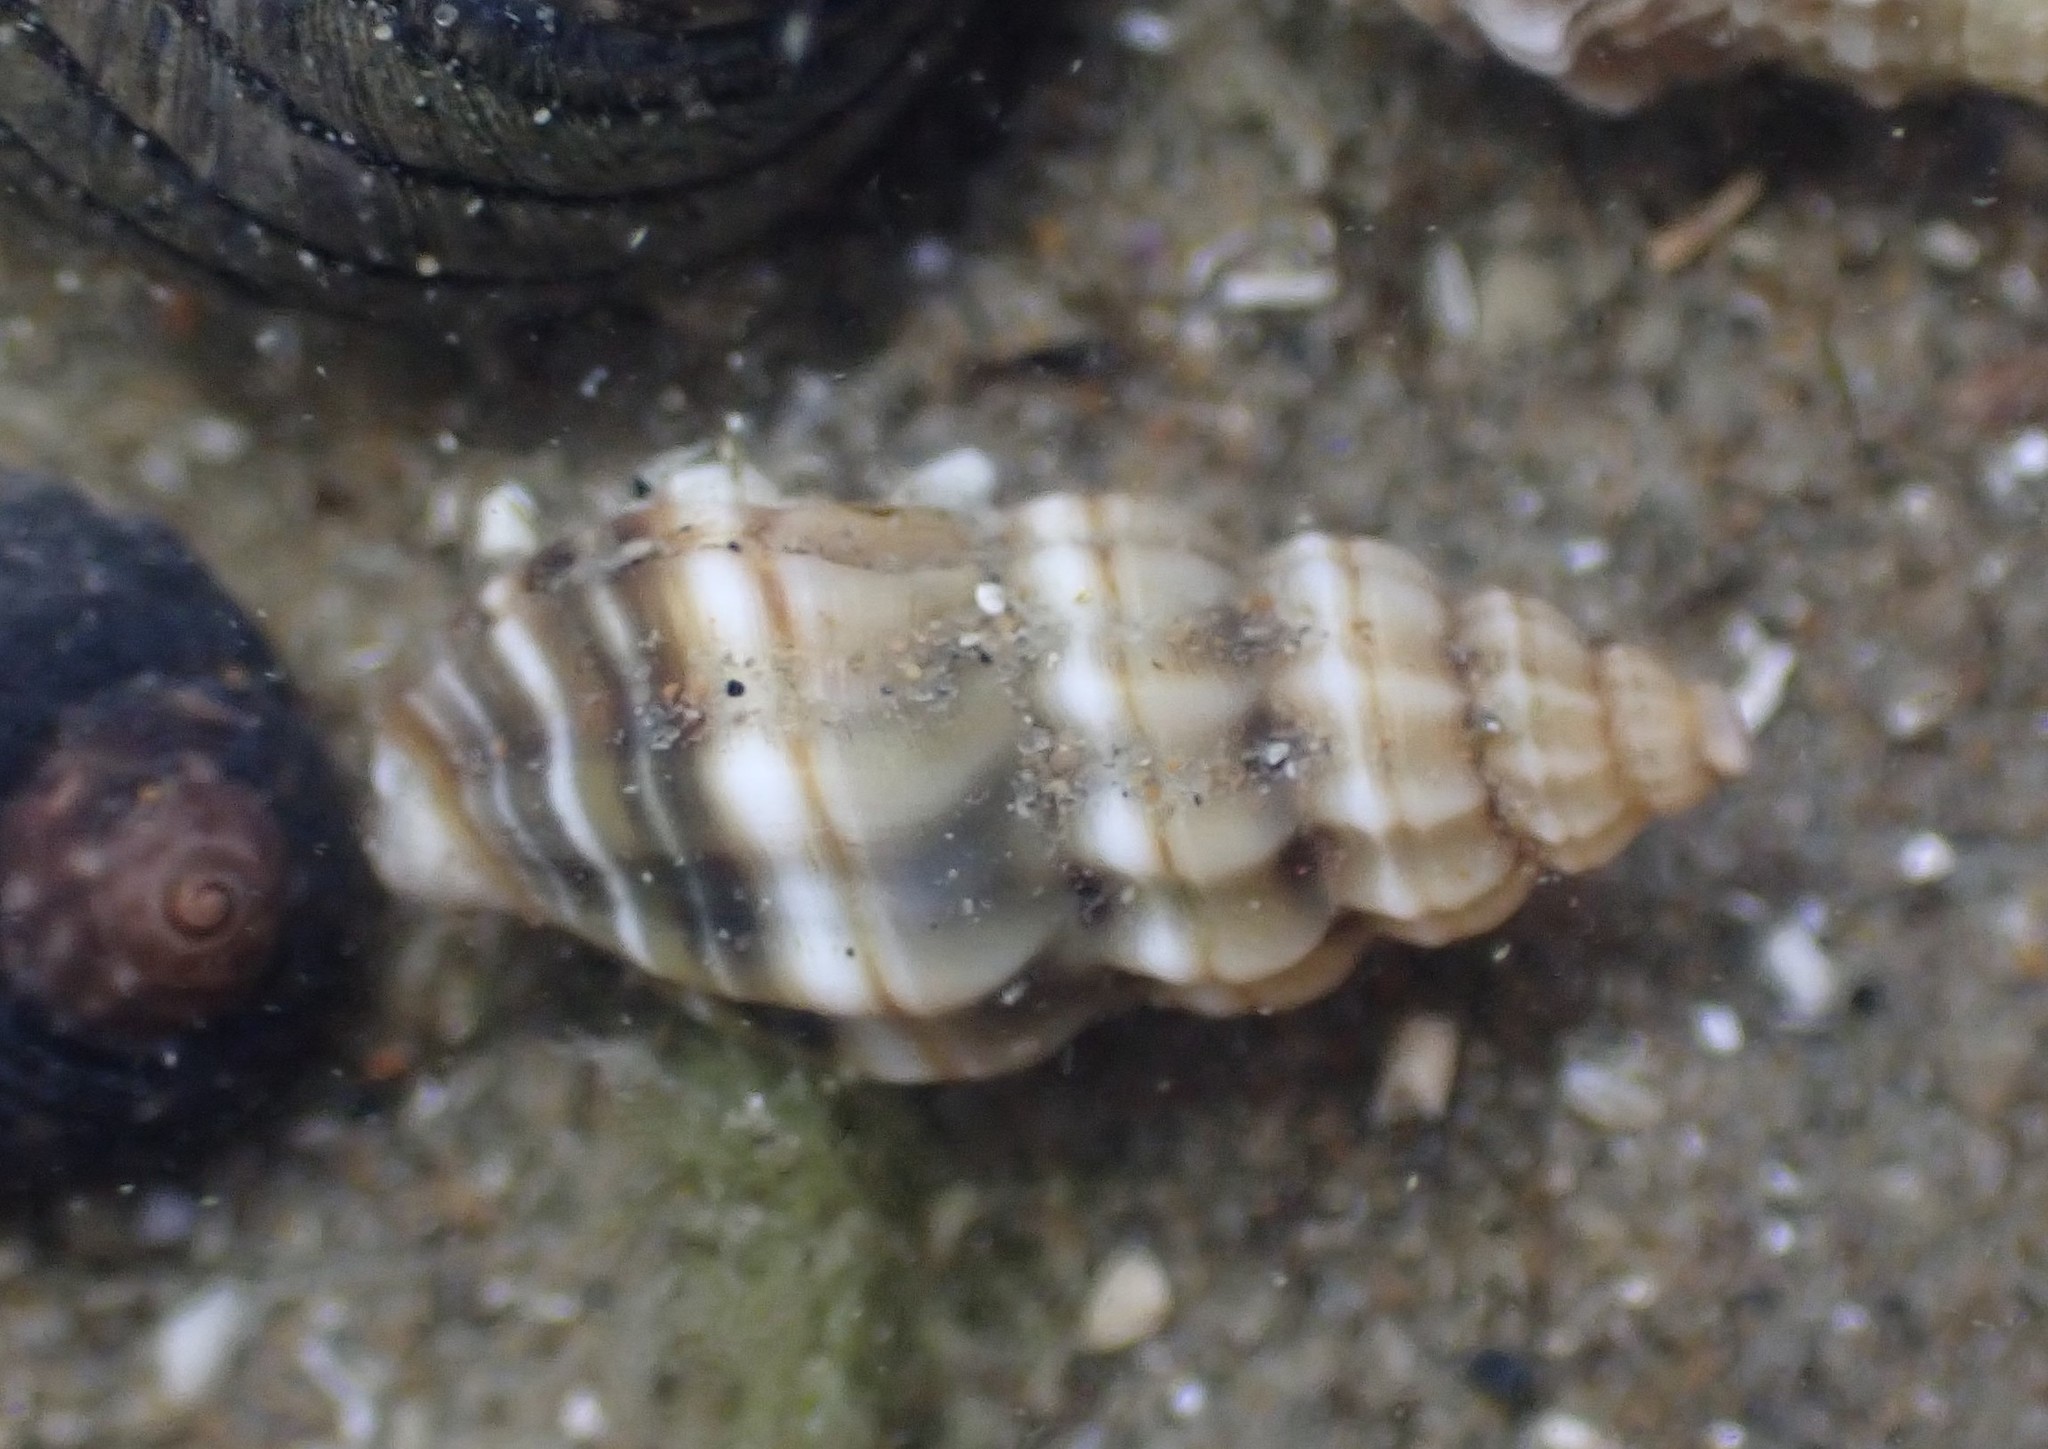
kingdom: Animalia
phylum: Mollusca
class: Gastropoda
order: Neogastropoda
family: Mangeliidae
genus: Neoguraleus
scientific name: Neoguraleus sinclairi
